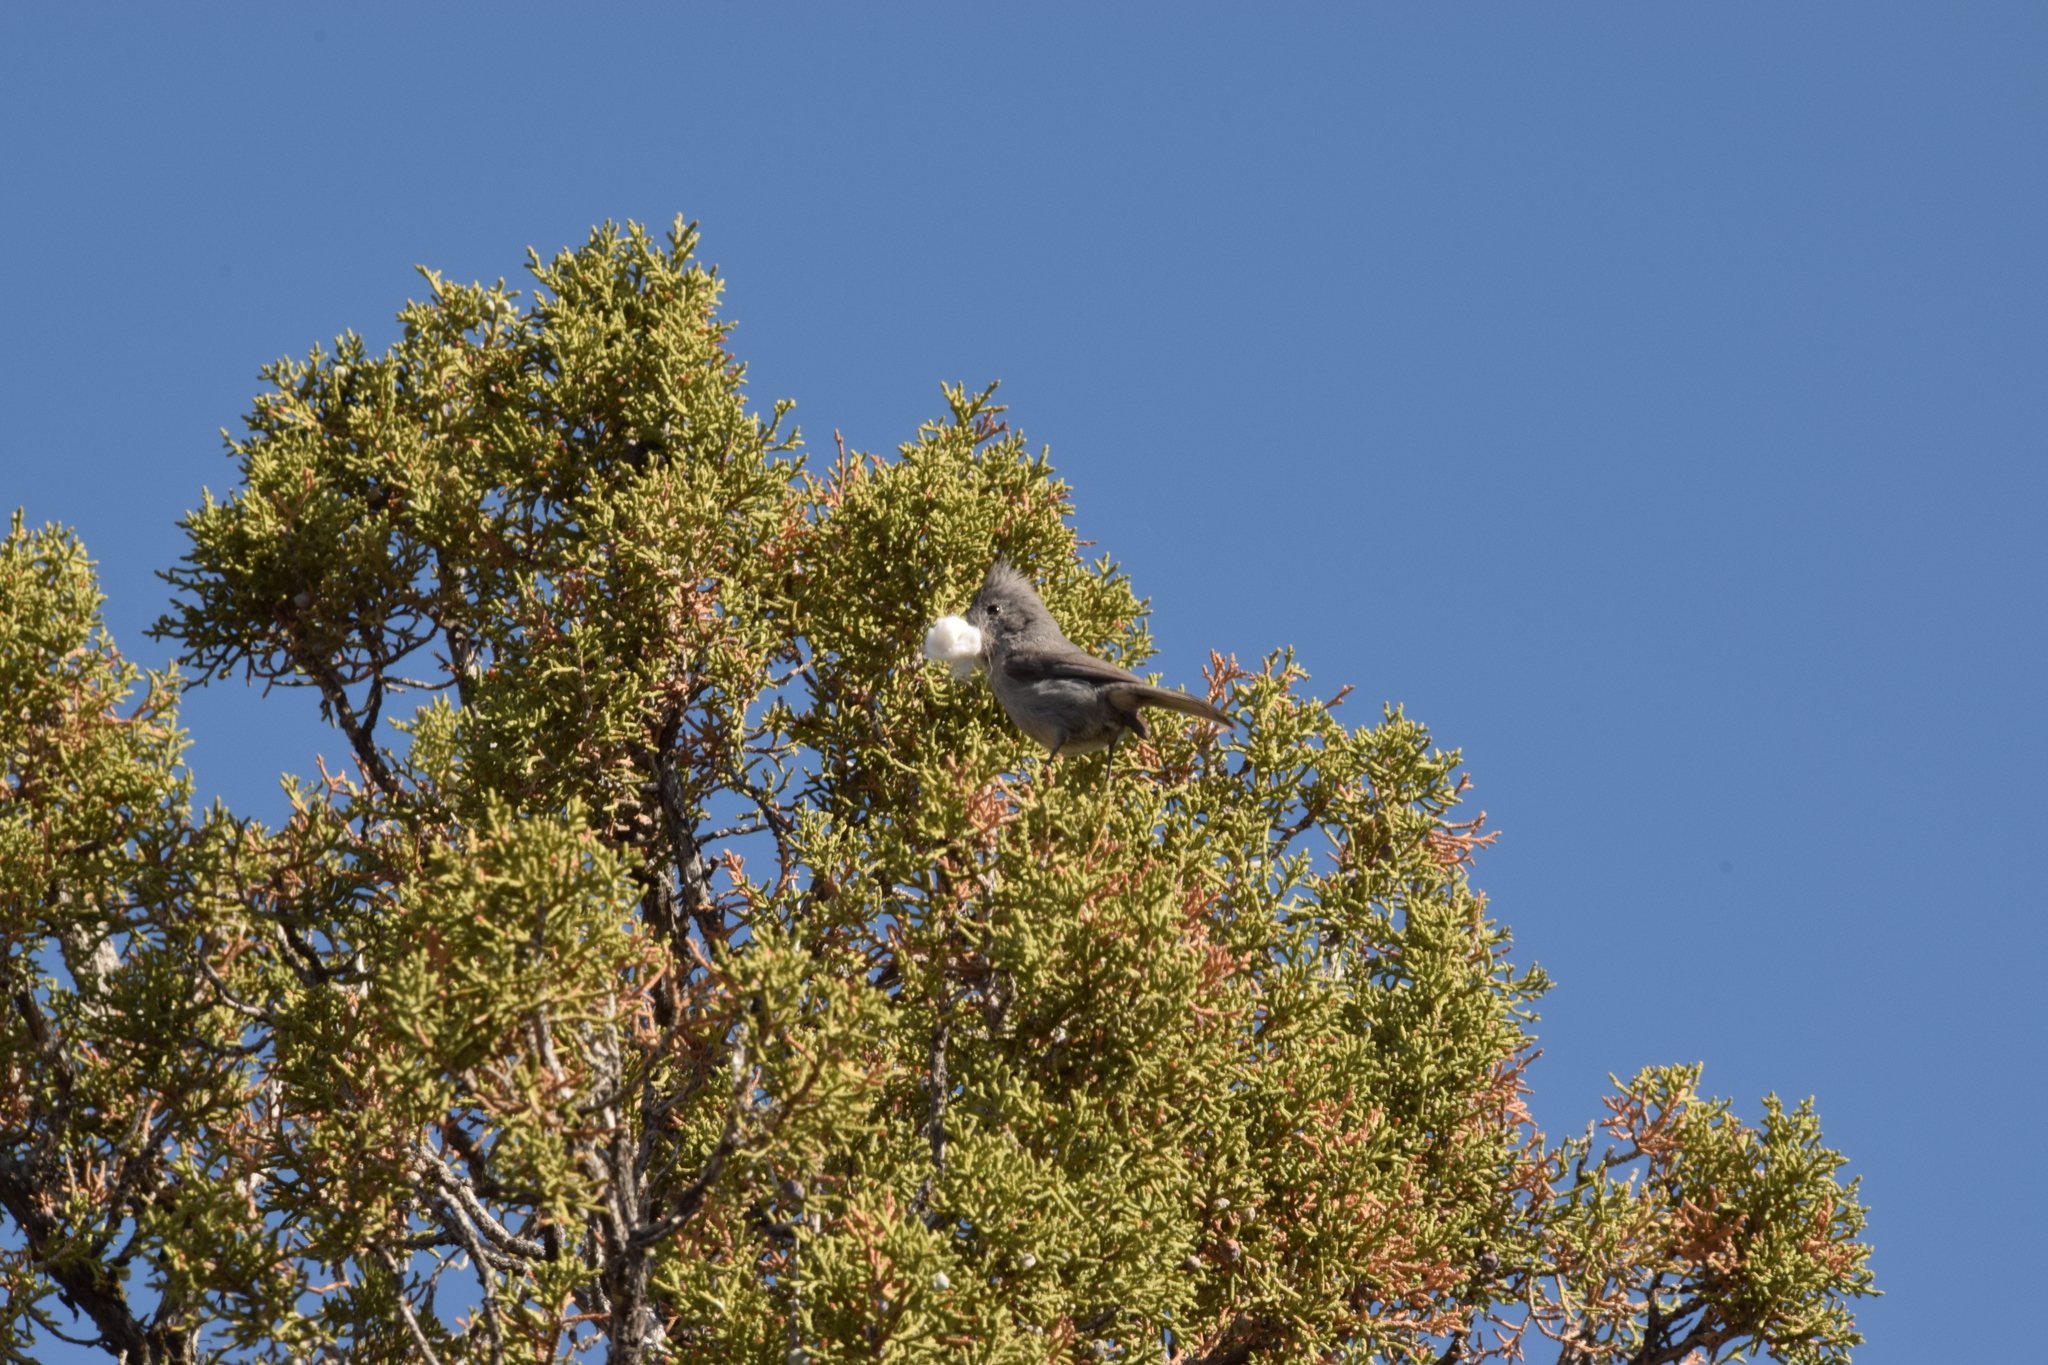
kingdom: Animalia
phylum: Chordata
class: Aves
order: Passeriformes
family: Paridae
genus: Baeolophus
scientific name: Baeolophus ridgwayi
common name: Juniper titmouse
